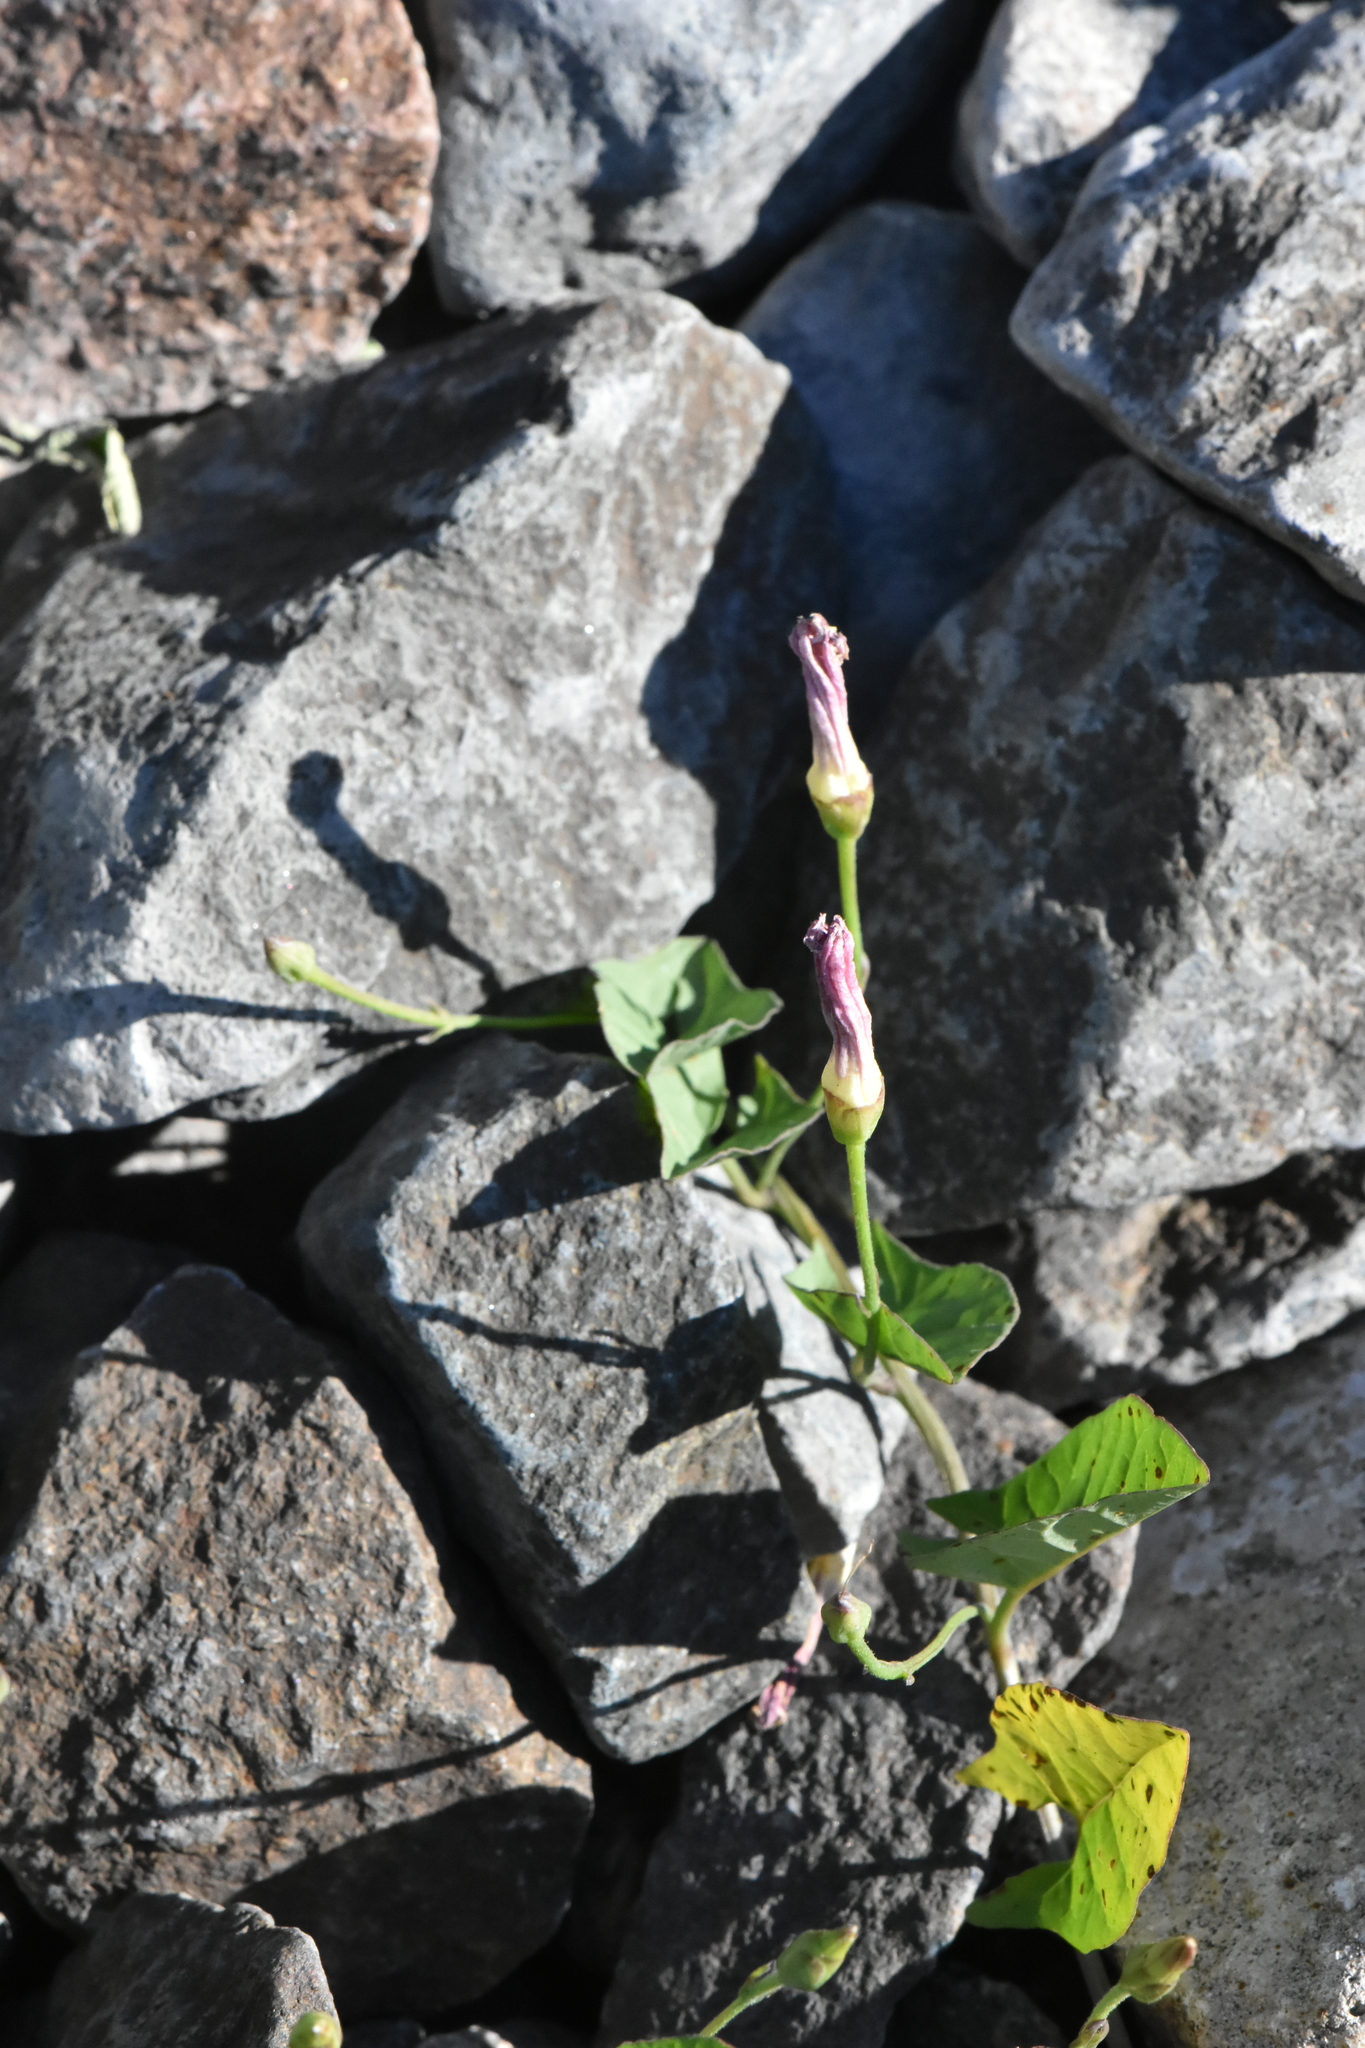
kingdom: Plantae
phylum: Tracheophyta
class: Magnoliopsida
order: Solanales
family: Convolvulaceae
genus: Convolvulus
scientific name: Convolvulus arvensis
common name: Field bindweed
